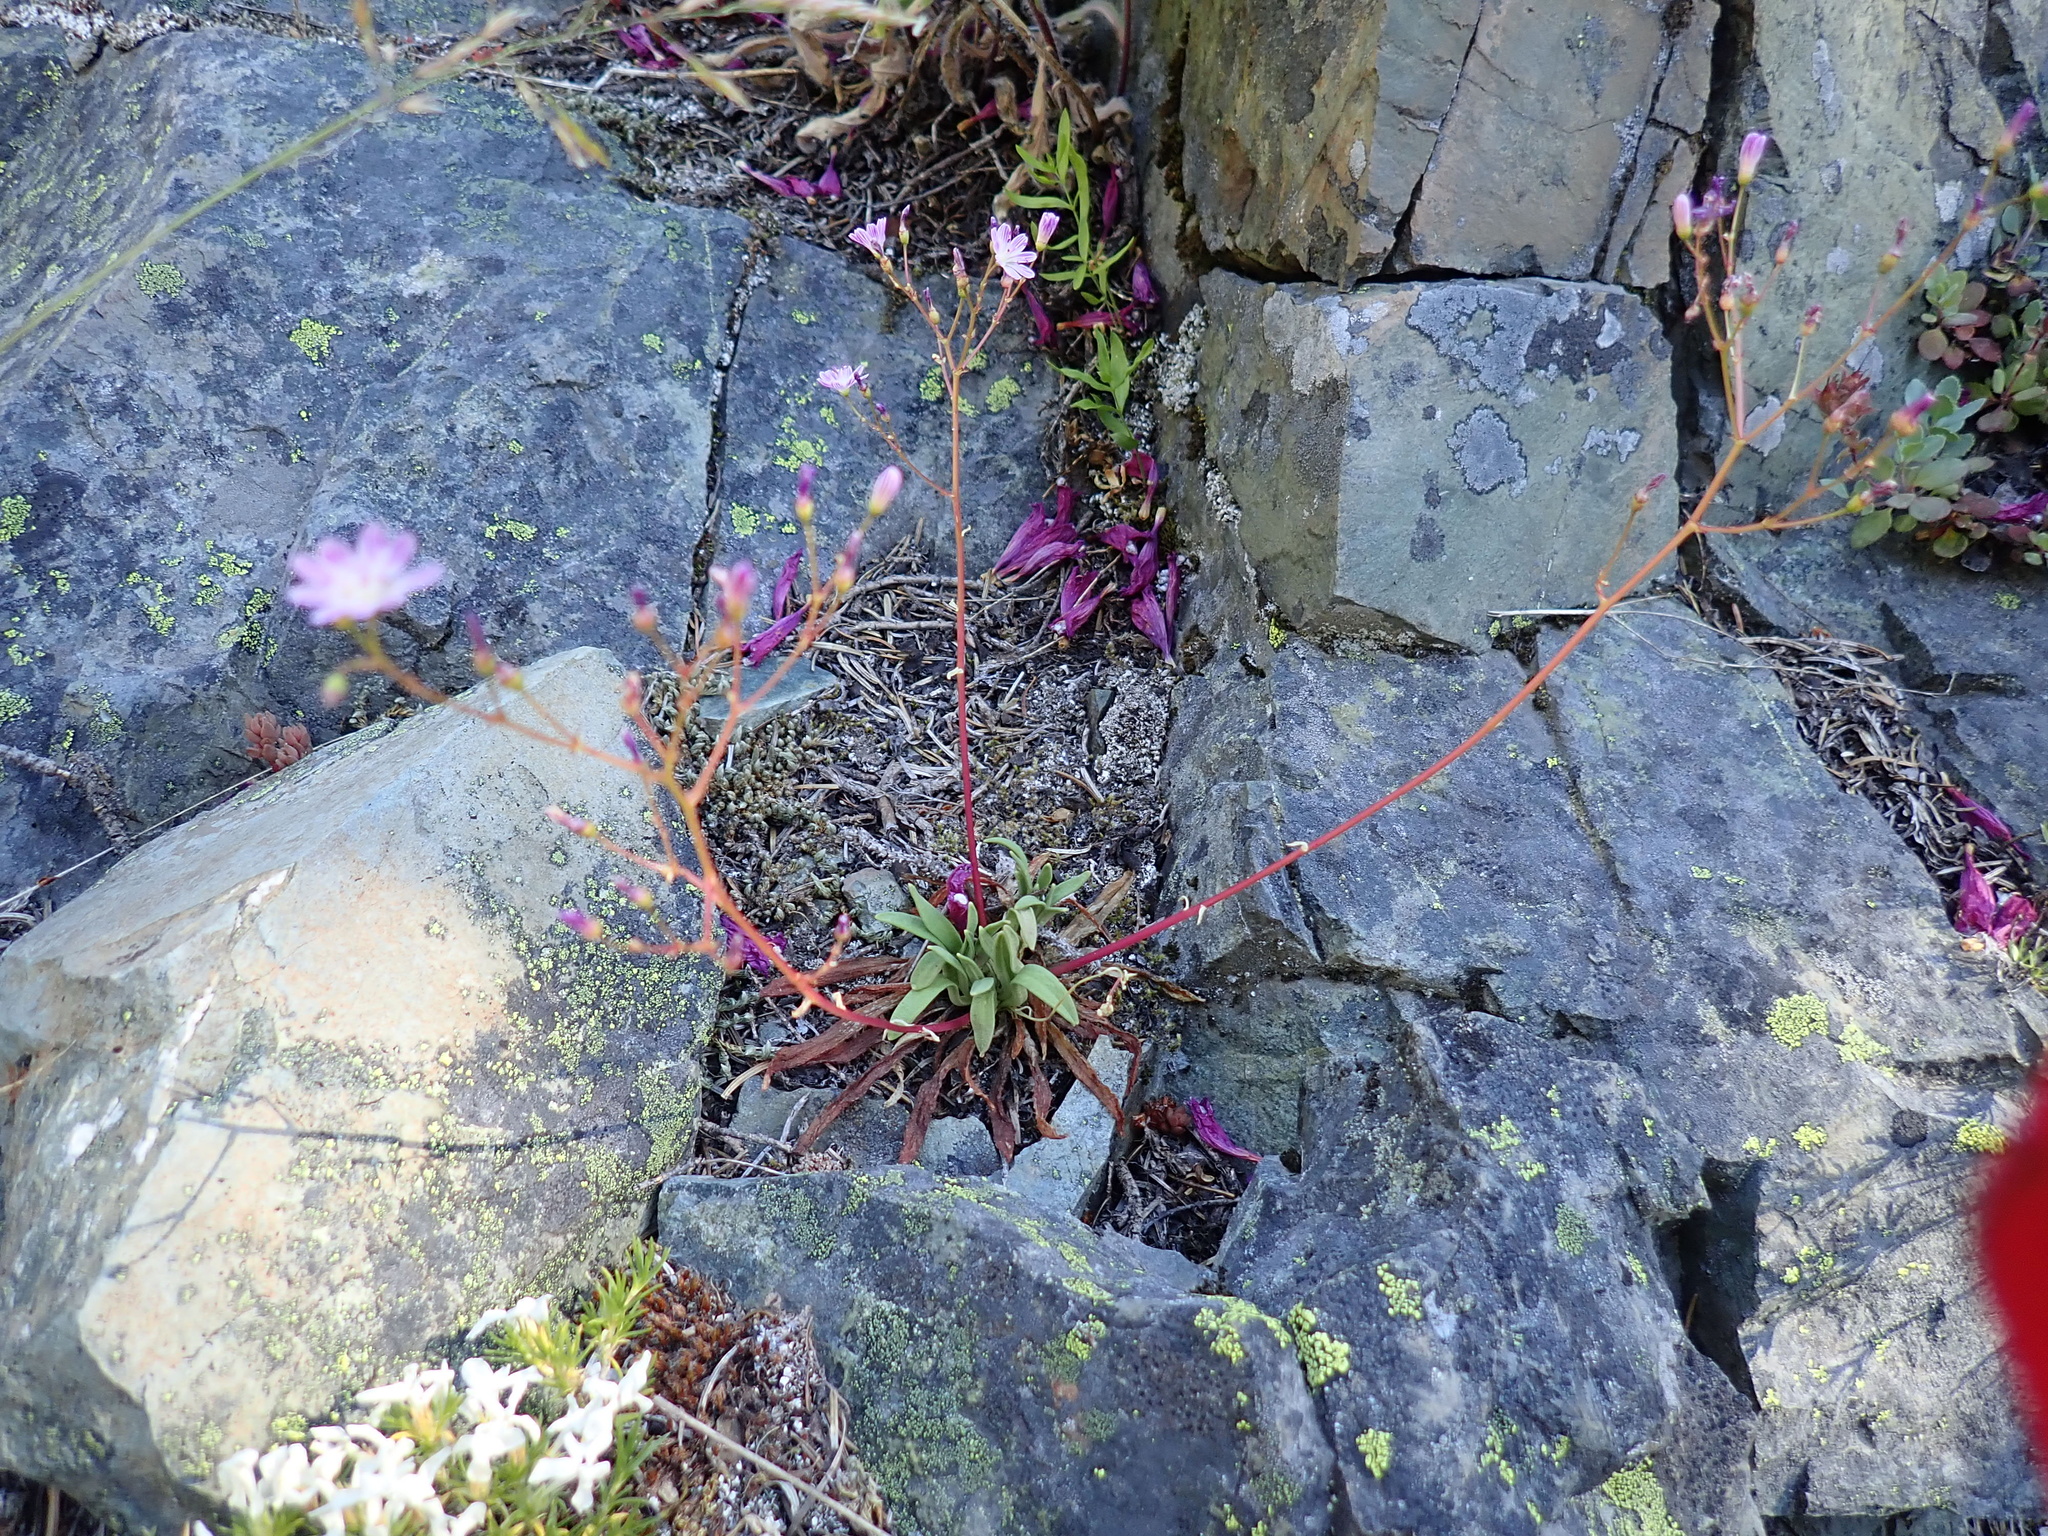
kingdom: Plantae
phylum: Tracheophyta
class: Magnoliopsida
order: Caryophyllales
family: Montiaceae
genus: Lewisia
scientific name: Lewisia columbiana
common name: Columbia lewisia
